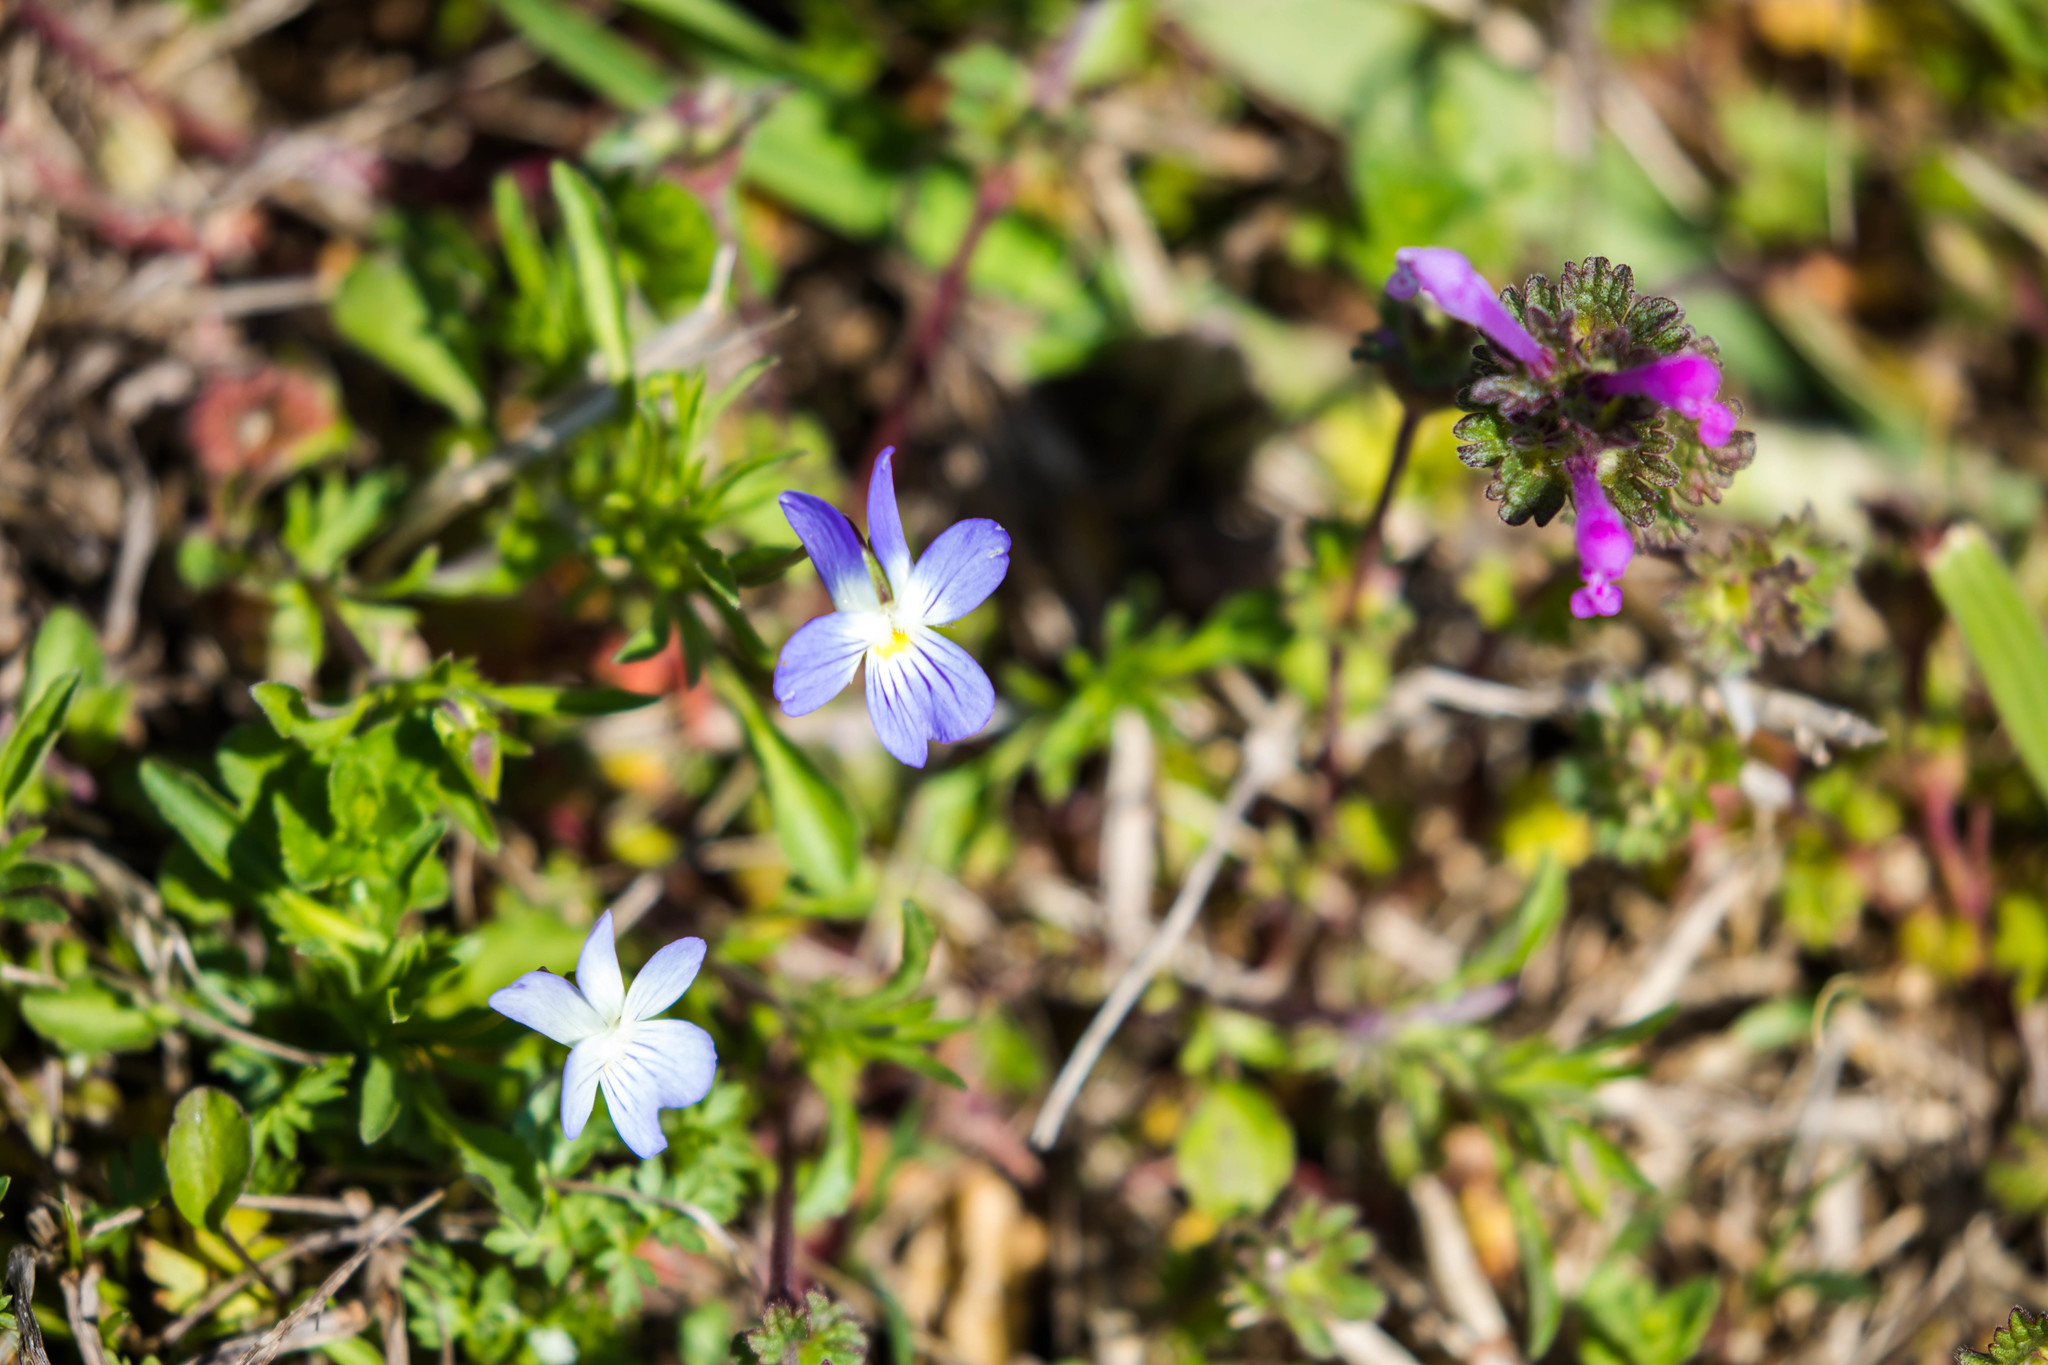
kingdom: Plantae
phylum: Tracheophyta
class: Magnoliopsida
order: Malpighiales
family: Violaceae
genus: Viola
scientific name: Viola rafinesquei
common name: American field pansy
